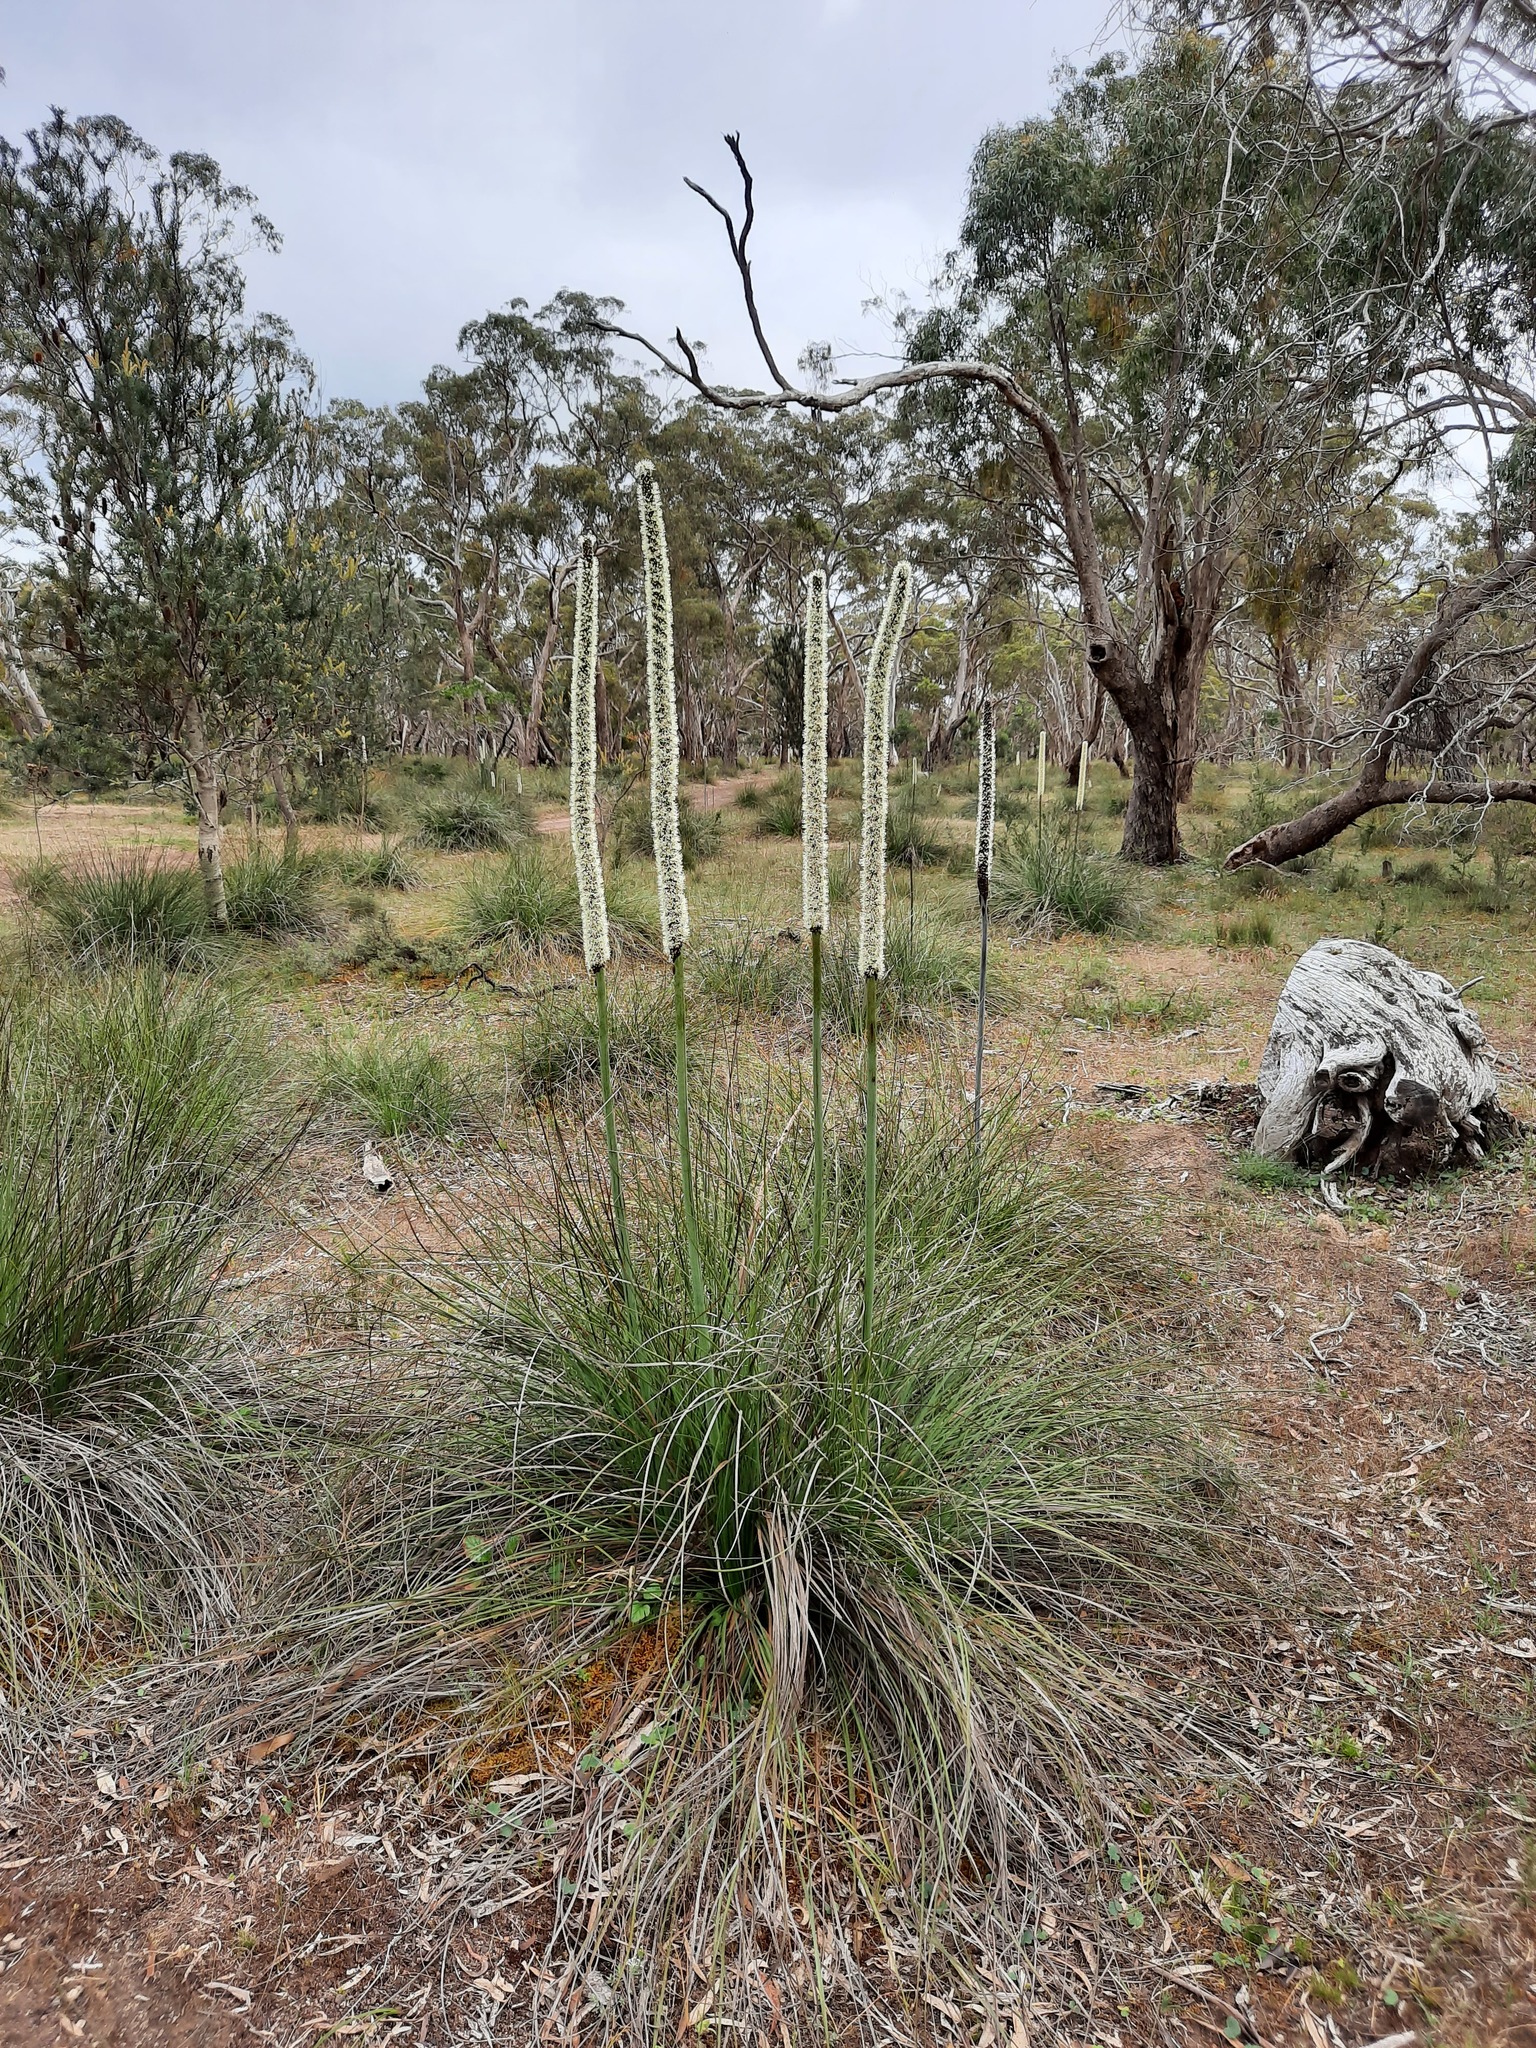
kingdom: Plantae
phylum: Tracheophyta
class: Liliopsida
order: Asparagales
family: Asphodelaceae
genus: Xanthorrhoea
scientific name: Xanthorrhoea caespitosa
